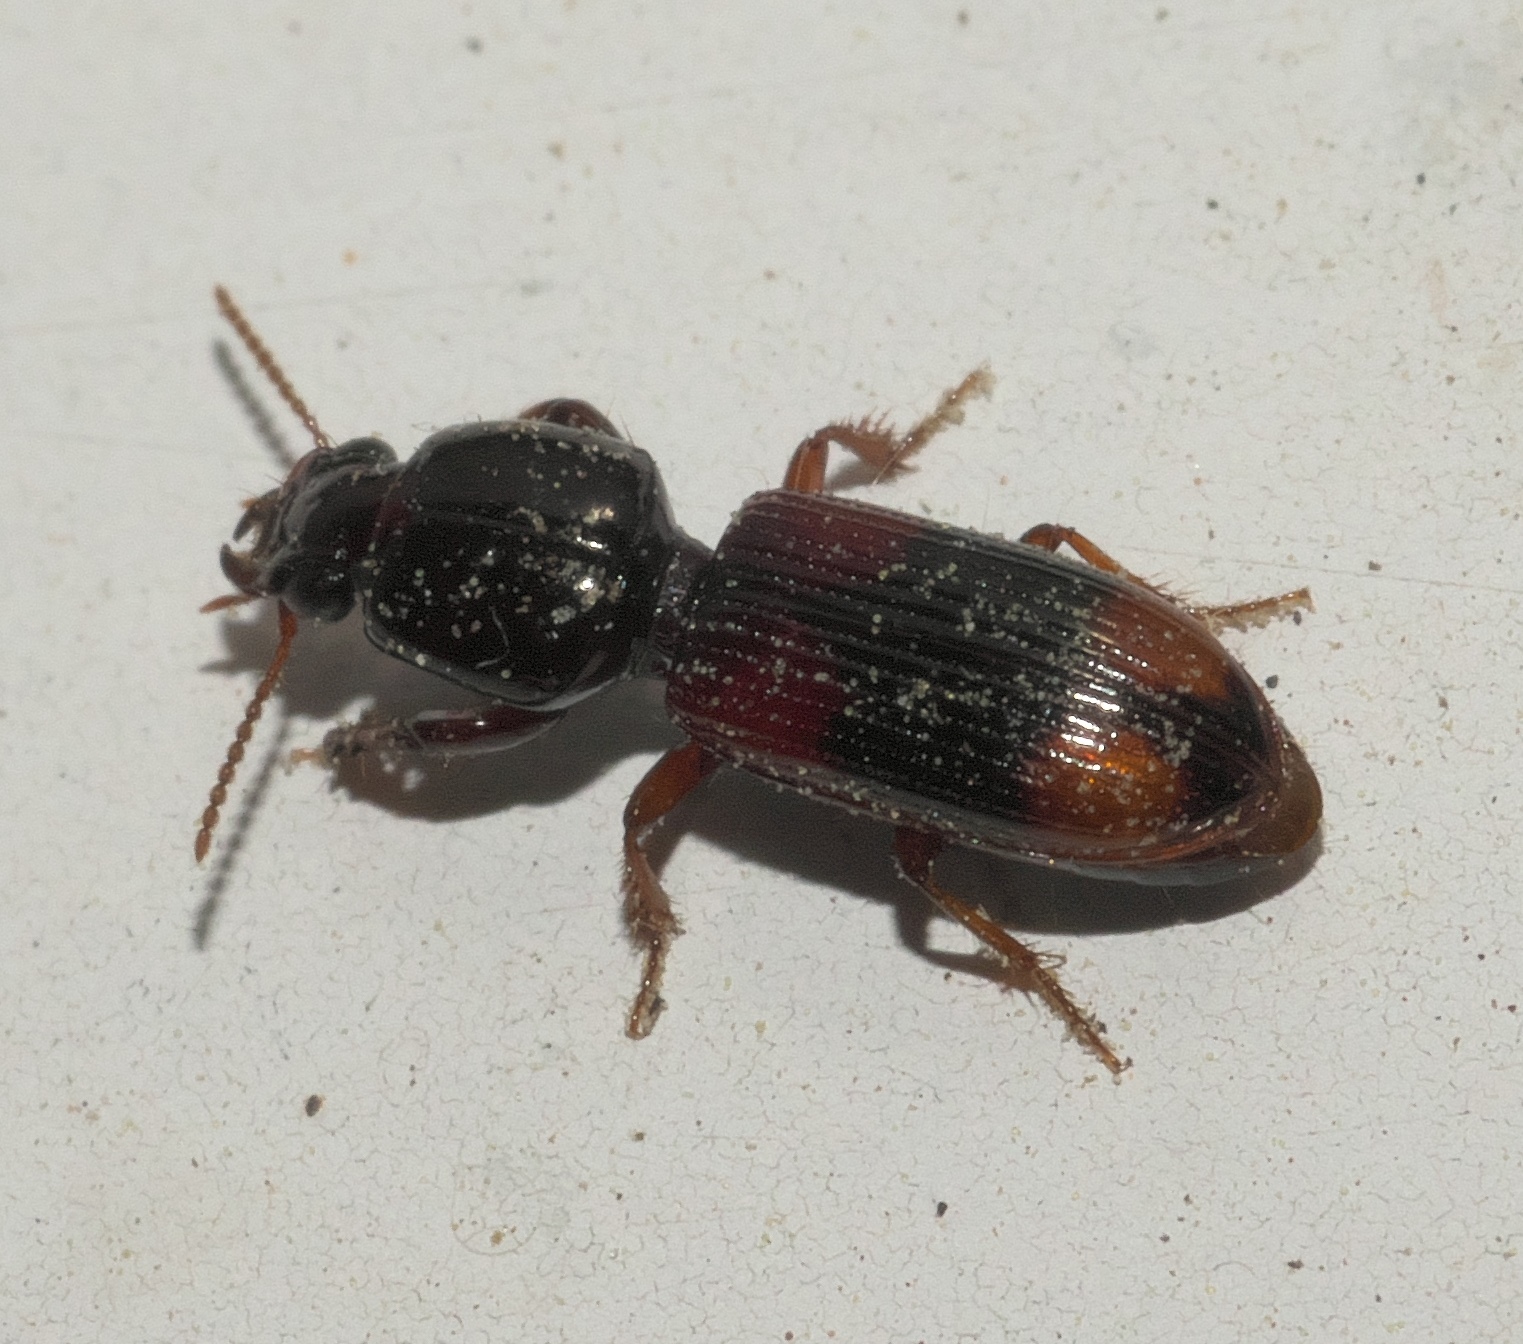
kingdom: Animalia
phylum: Arthropoda
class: Insecta
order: Coleoptera
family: Carabidae
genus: Clivina
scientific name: Clivina bipustulata
